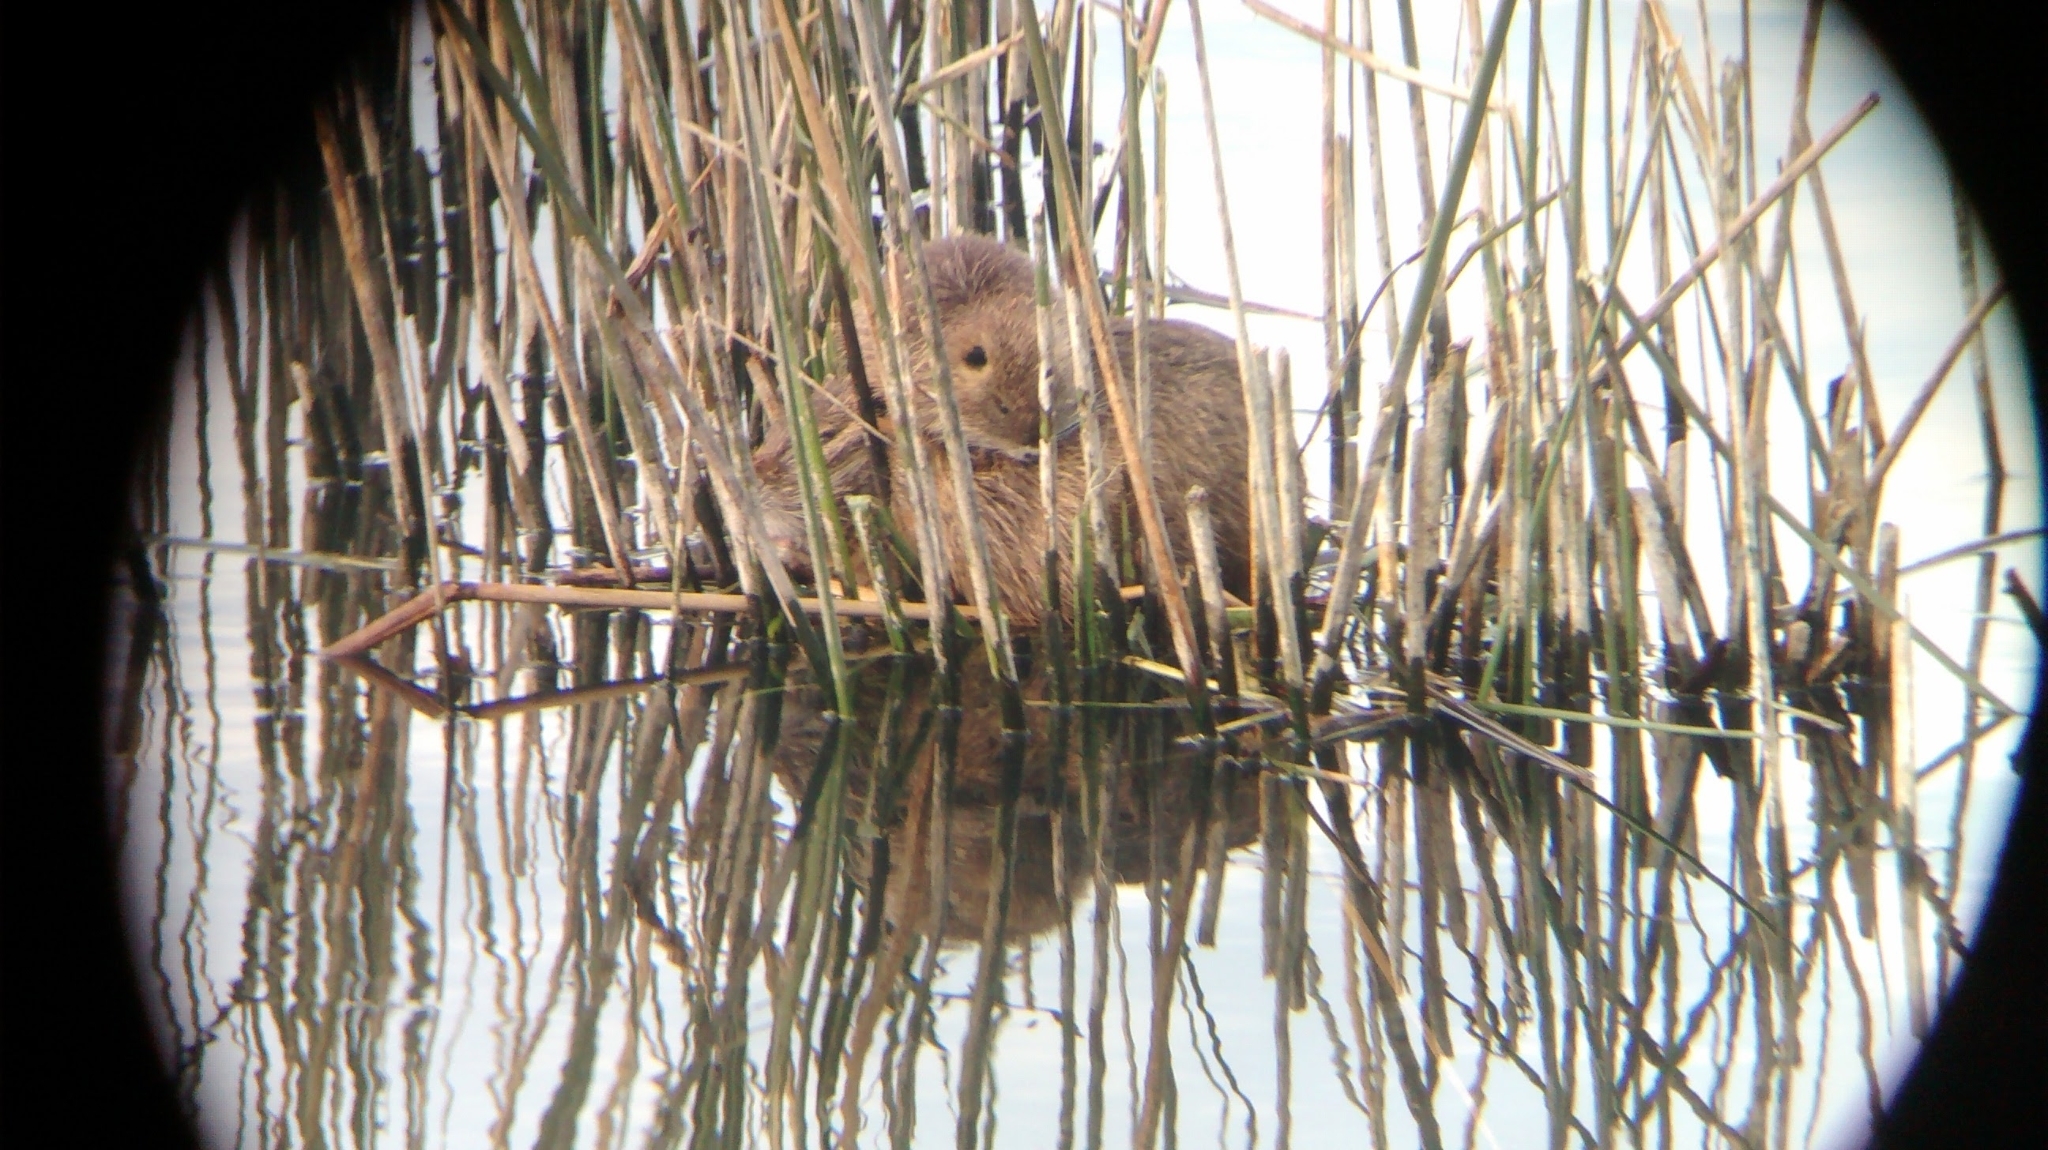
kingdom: Animalia
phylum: Chordata
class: Mammalia
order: Rodentia
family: Myocastoridae
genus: Myocastor
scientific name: Myocastor coypus
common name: Coypu
